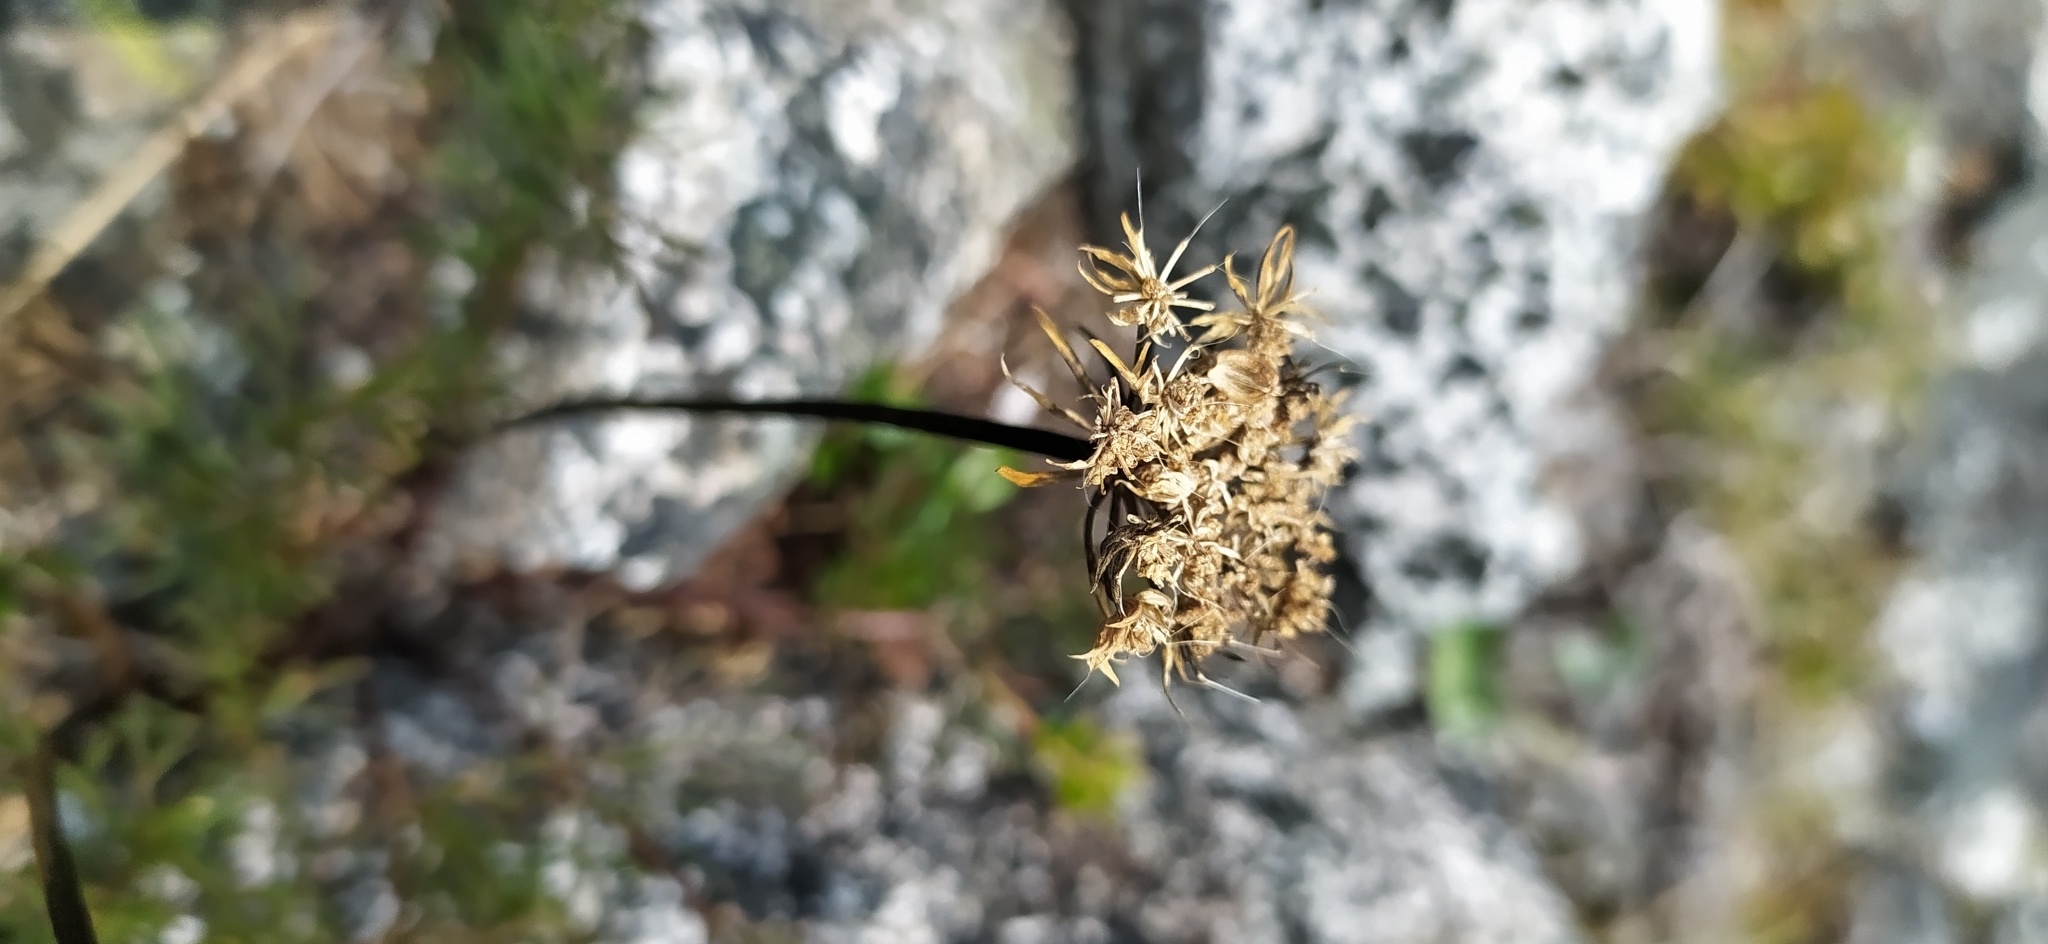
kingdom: Plantae
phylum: Tracheophyta
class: Magnoliopsida
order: Apiales
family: Apiaceae
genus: Pachypleurum
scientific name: Pachypleurum mutellinoides
